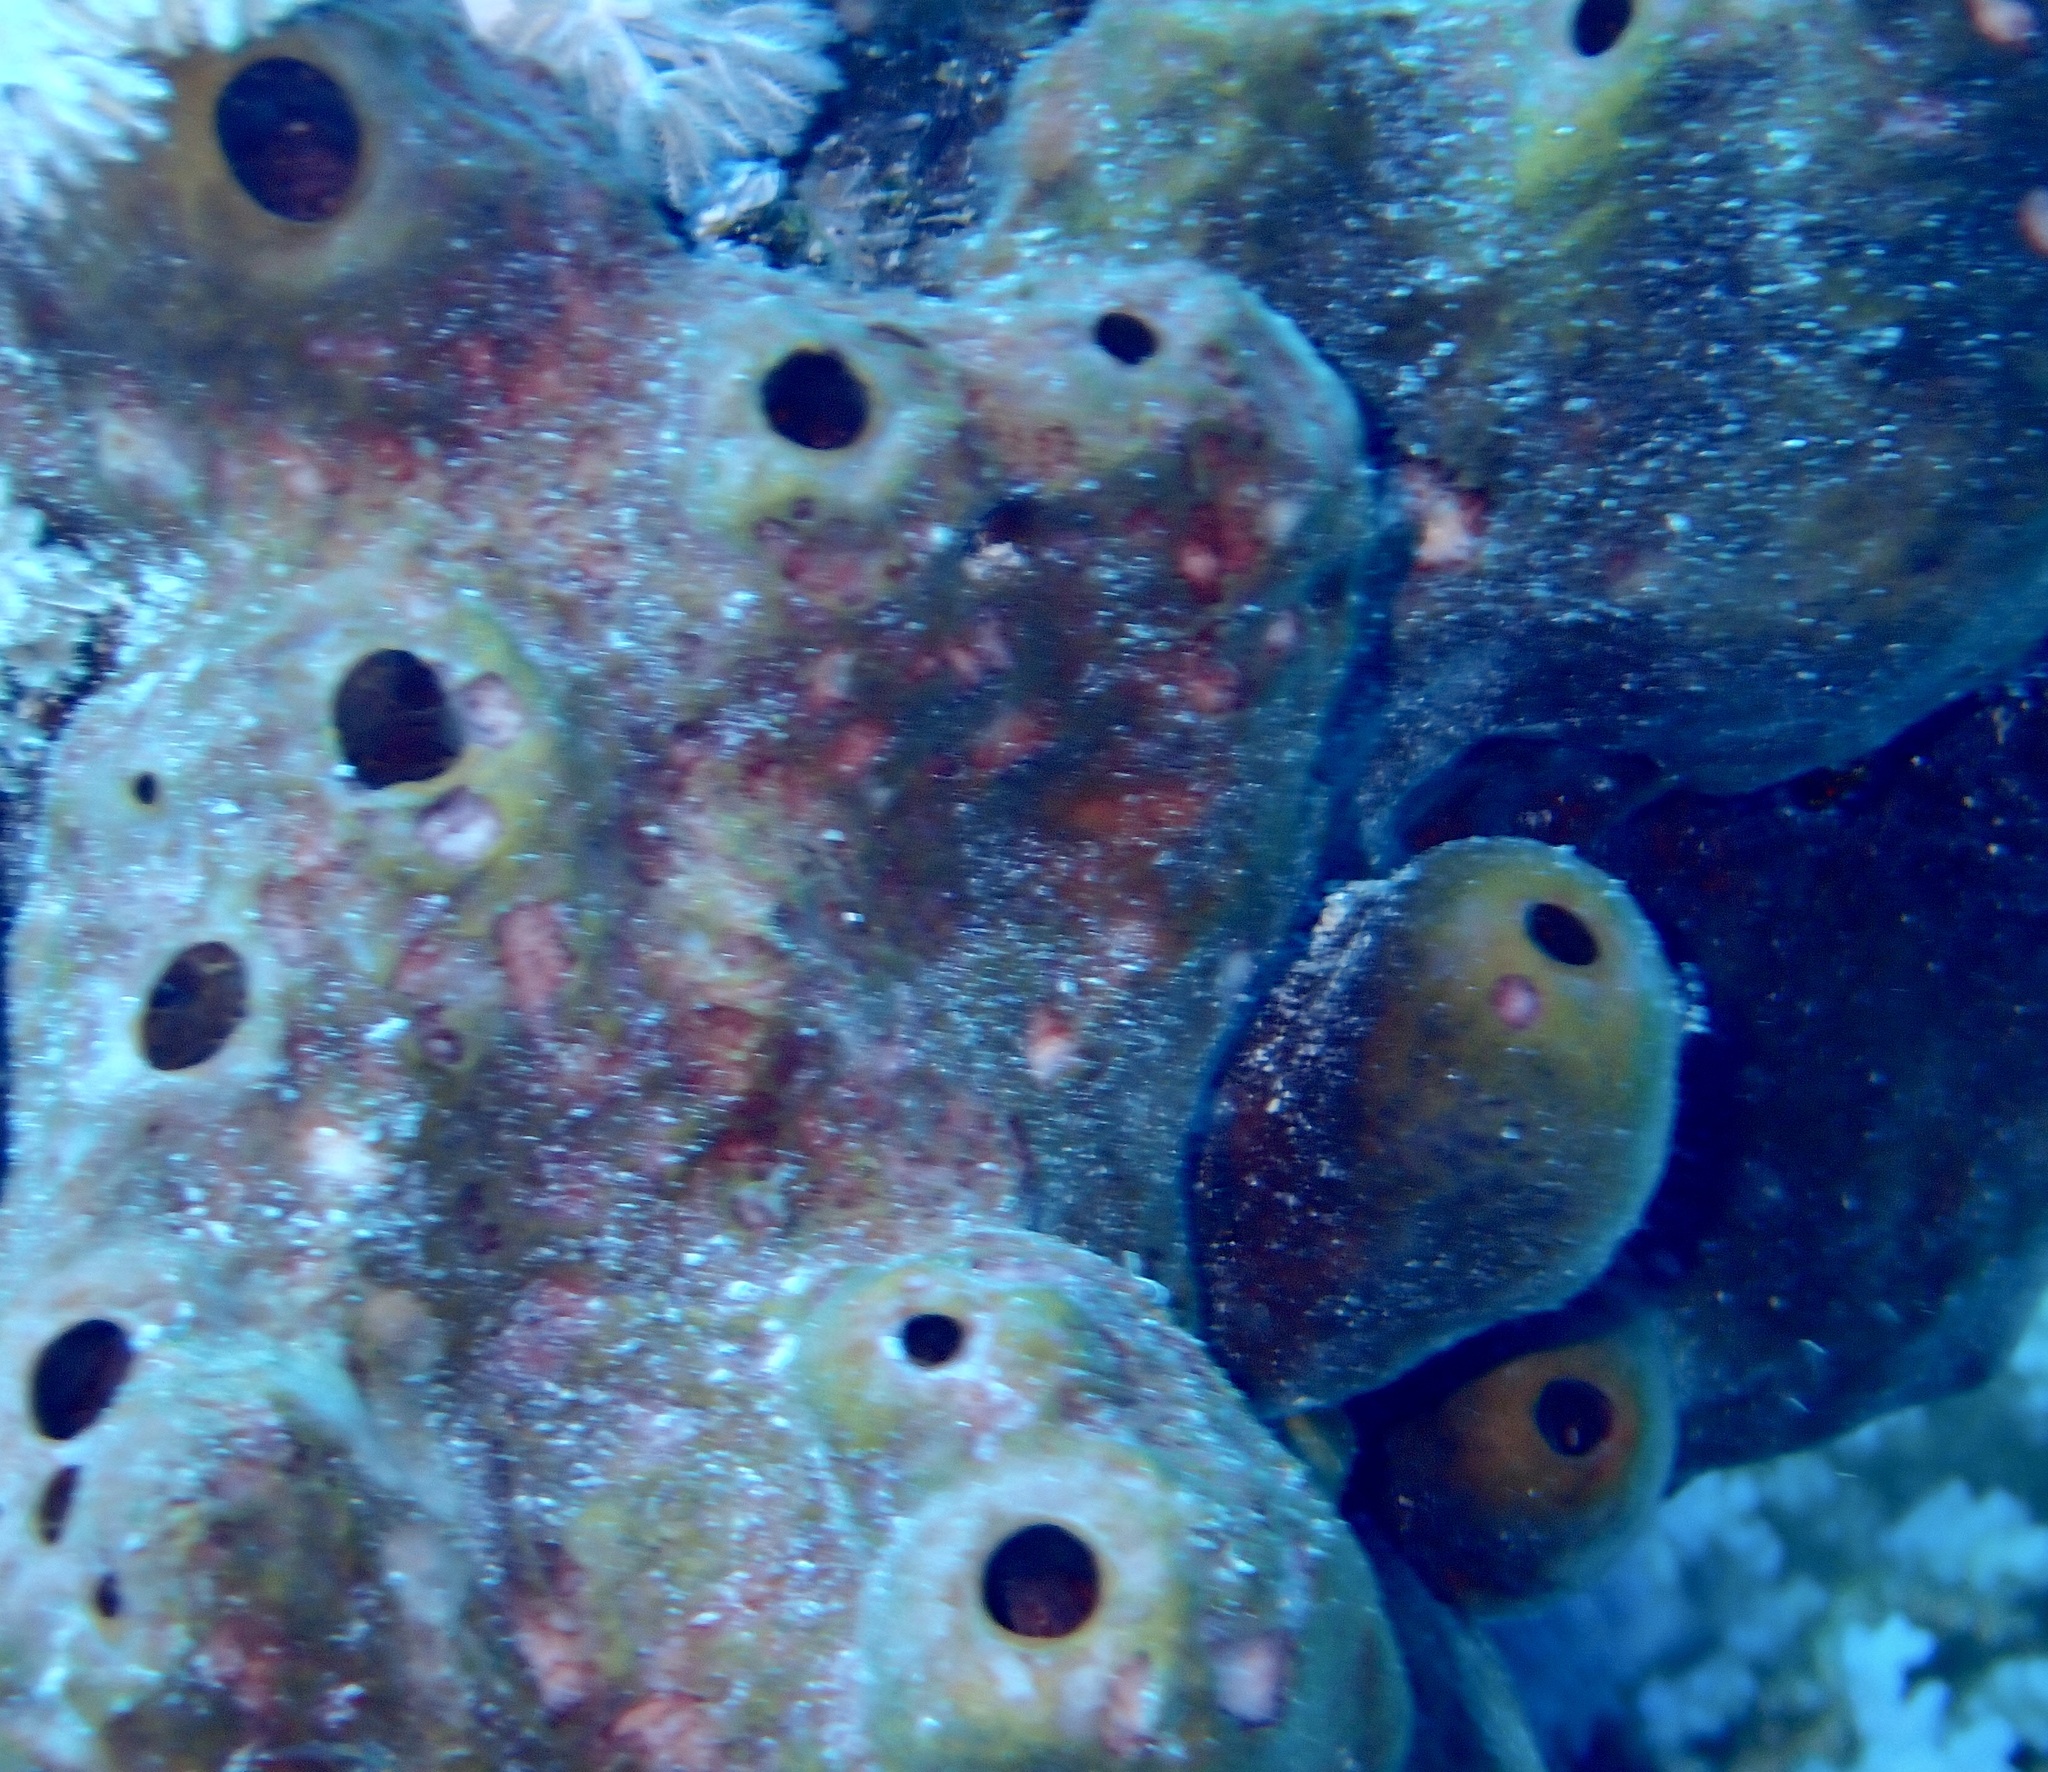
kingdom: Animalia
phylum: Porifera
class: Demospongiae
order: Tetractinellida
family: Theonellidae
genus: Theonella
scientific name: Theonella swinhoei
